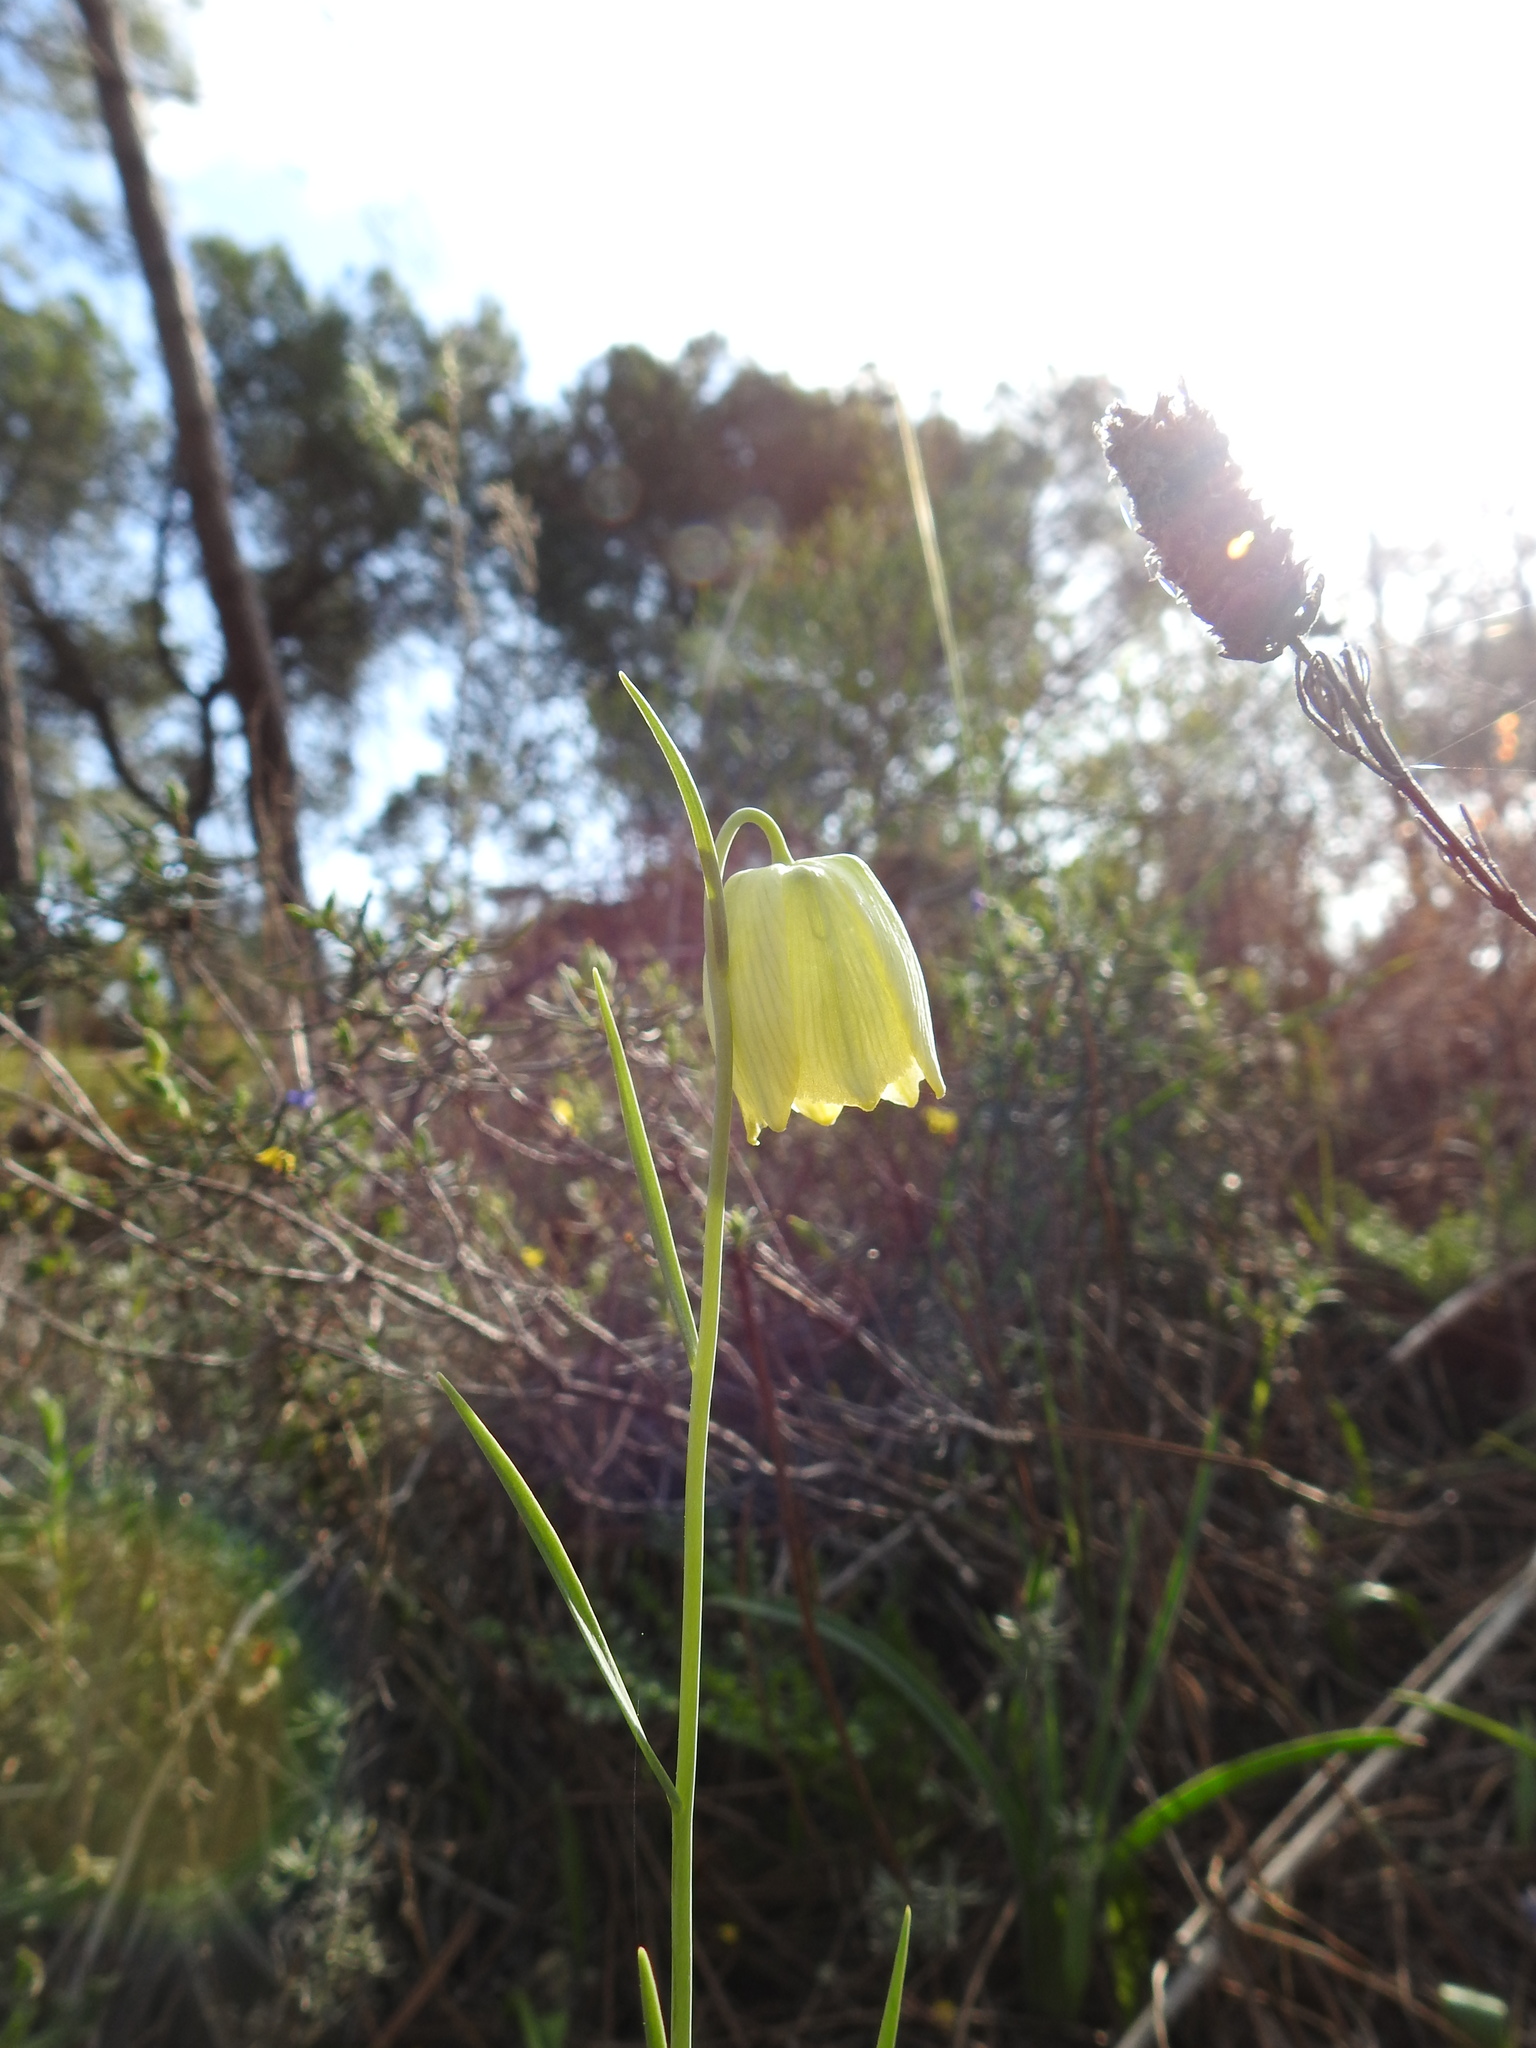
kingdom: Plantae
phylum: Tracheophyta
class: Liliopsida
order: Liliales
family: Liliaceae
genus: Fritillaria
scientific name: Fritillaria lusitanica
